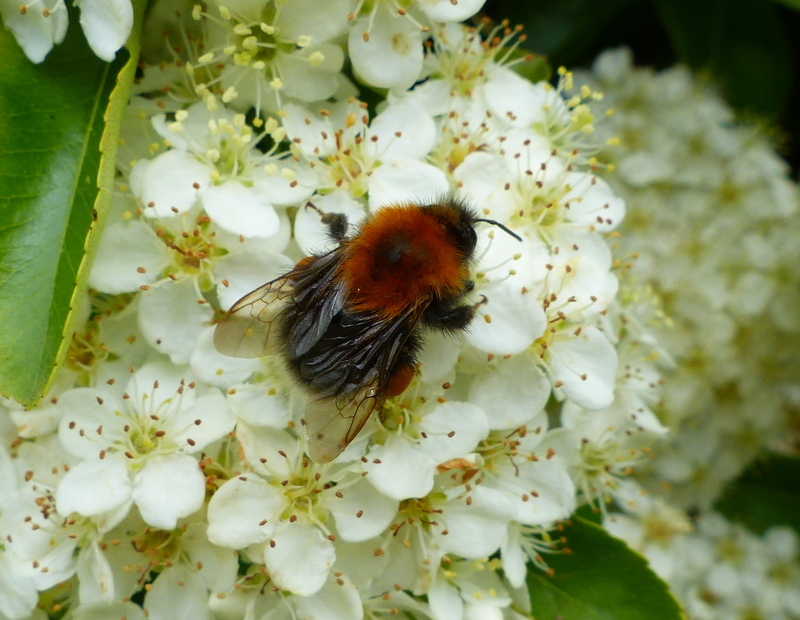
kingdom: Animalia
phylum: Arthropoda
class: Insecta
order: Hymenoptera
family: Apidae
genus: Bombus
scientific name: Bombus hypnorum
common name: New garden bumblebee
